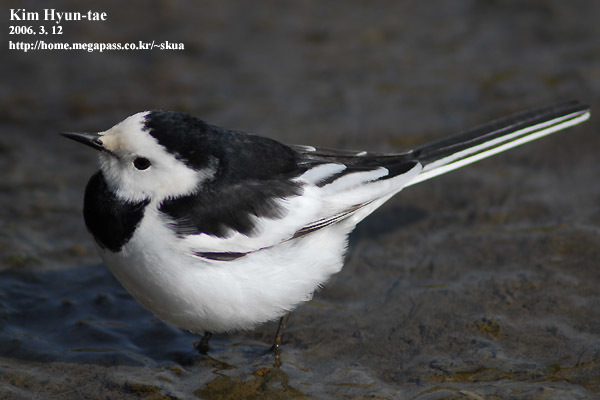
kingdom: Animalia
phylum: Chordata
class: Aves
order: Passeriformes
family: Motacillidae
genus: Motacilla
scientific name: Motacilla alba
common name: White wagtail
